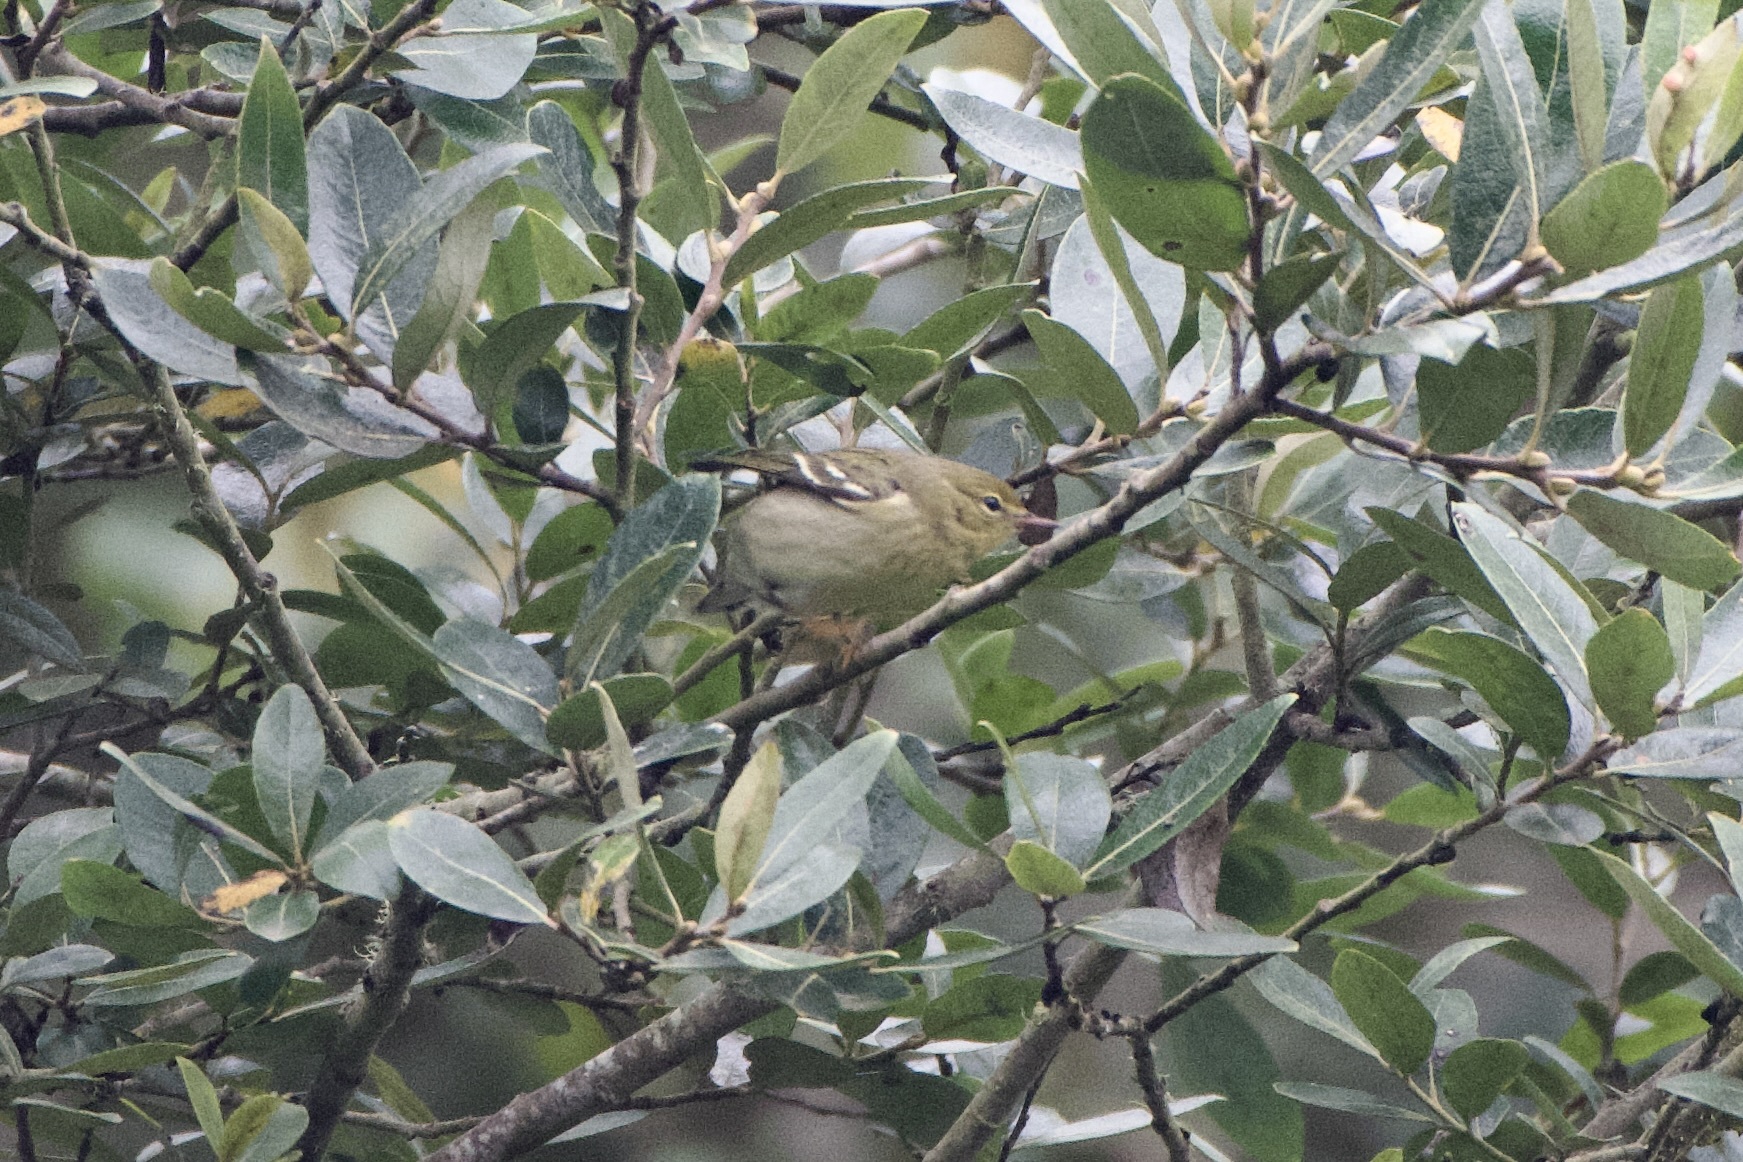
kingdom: Animalia
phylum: Chordata
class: Aves
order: Passeriformes
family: Parulidae
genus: Setophaga
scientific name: Setophaga striata
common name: Blackpoll warbler
